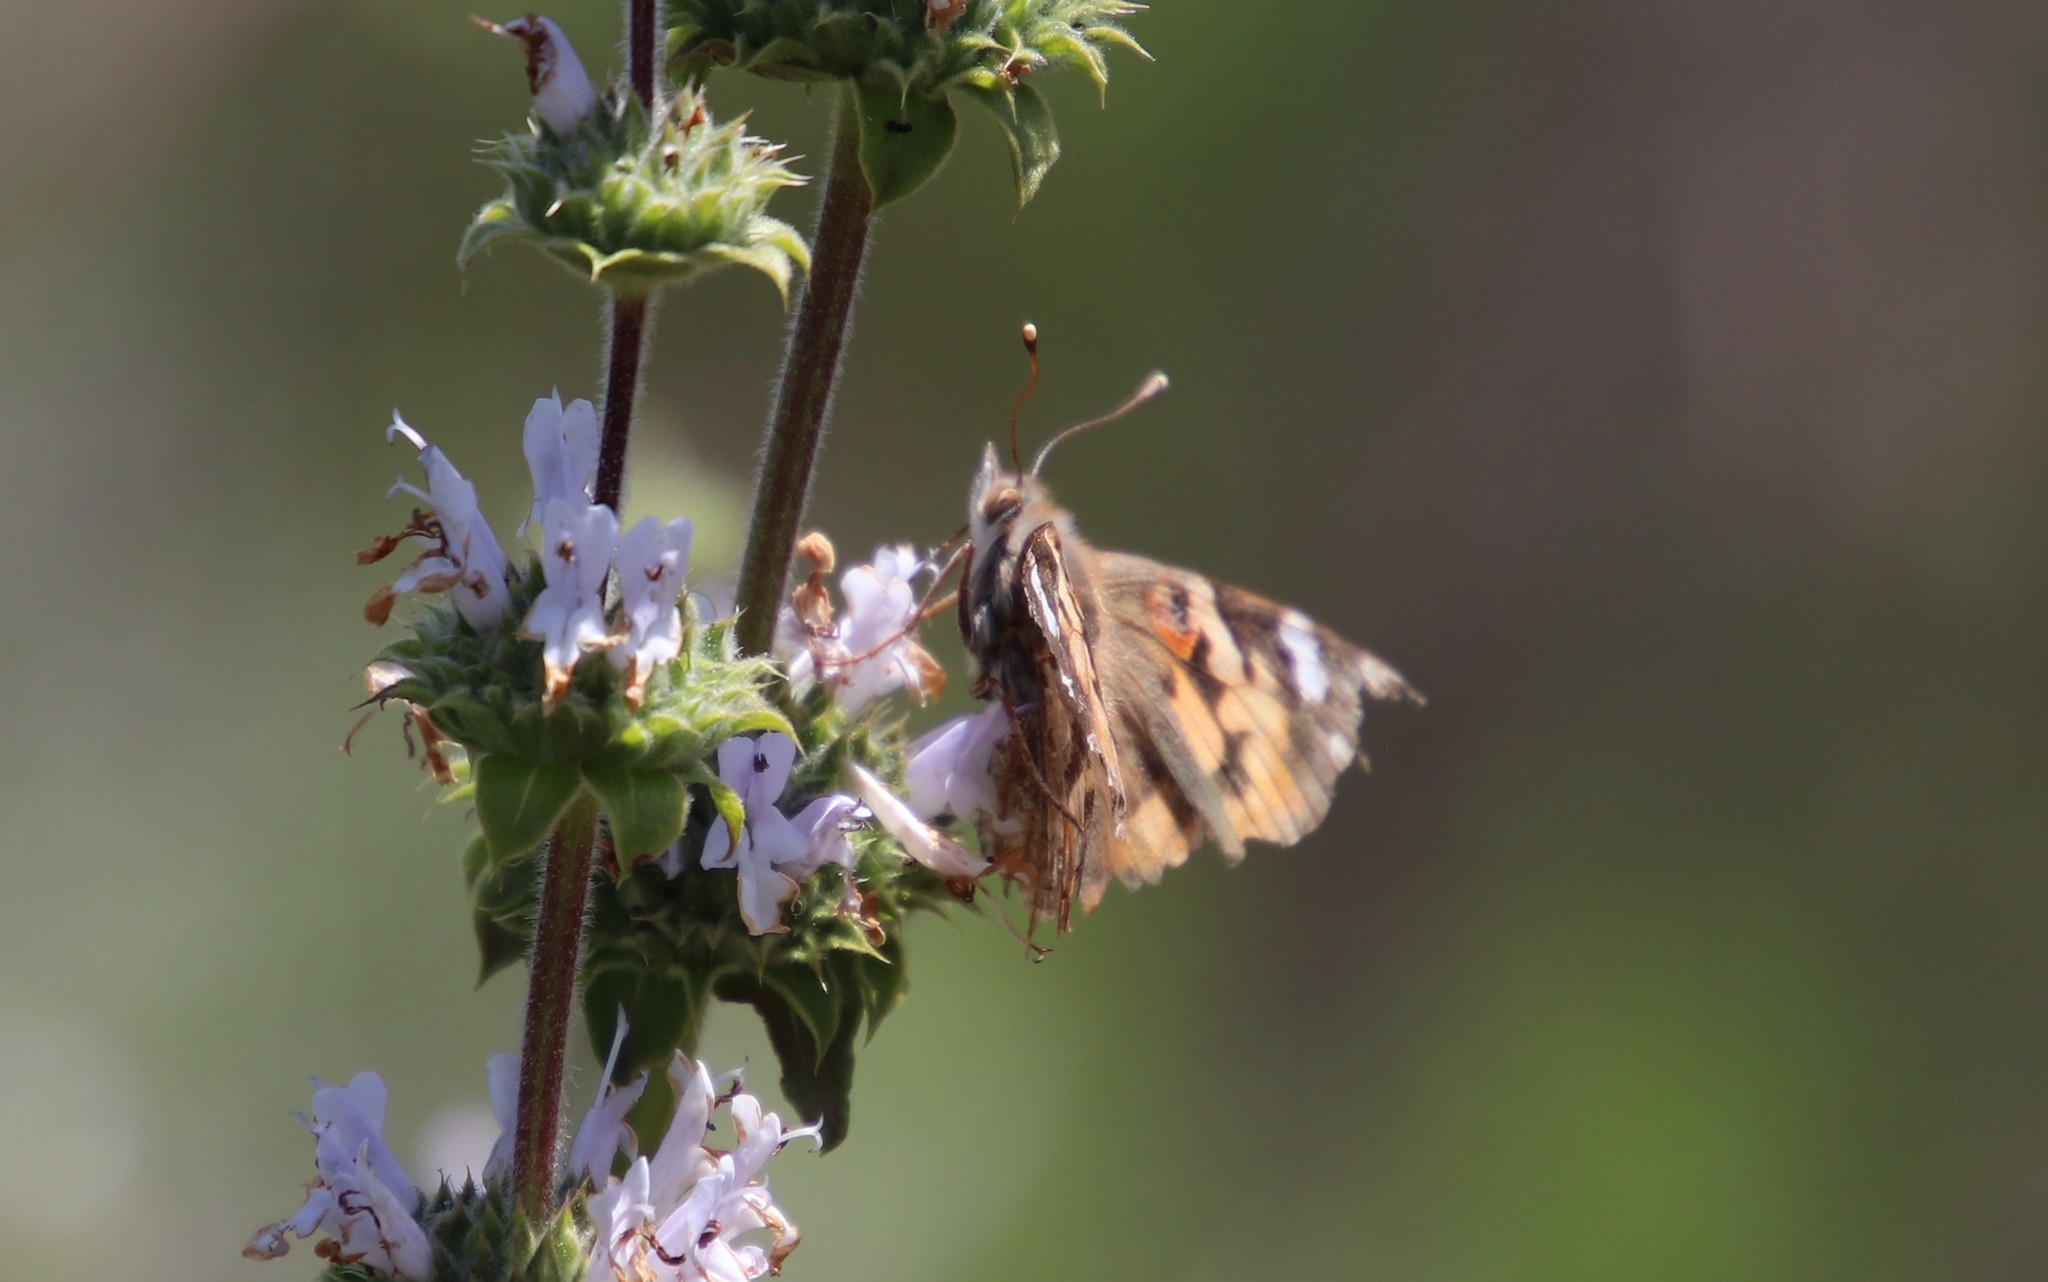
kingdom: Animalia
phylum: Arthropoda
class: Insecta
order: Lepidoptera
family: Nymphalidae
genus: Vanessa
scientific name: Vanessa cardui
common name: Painted lady
